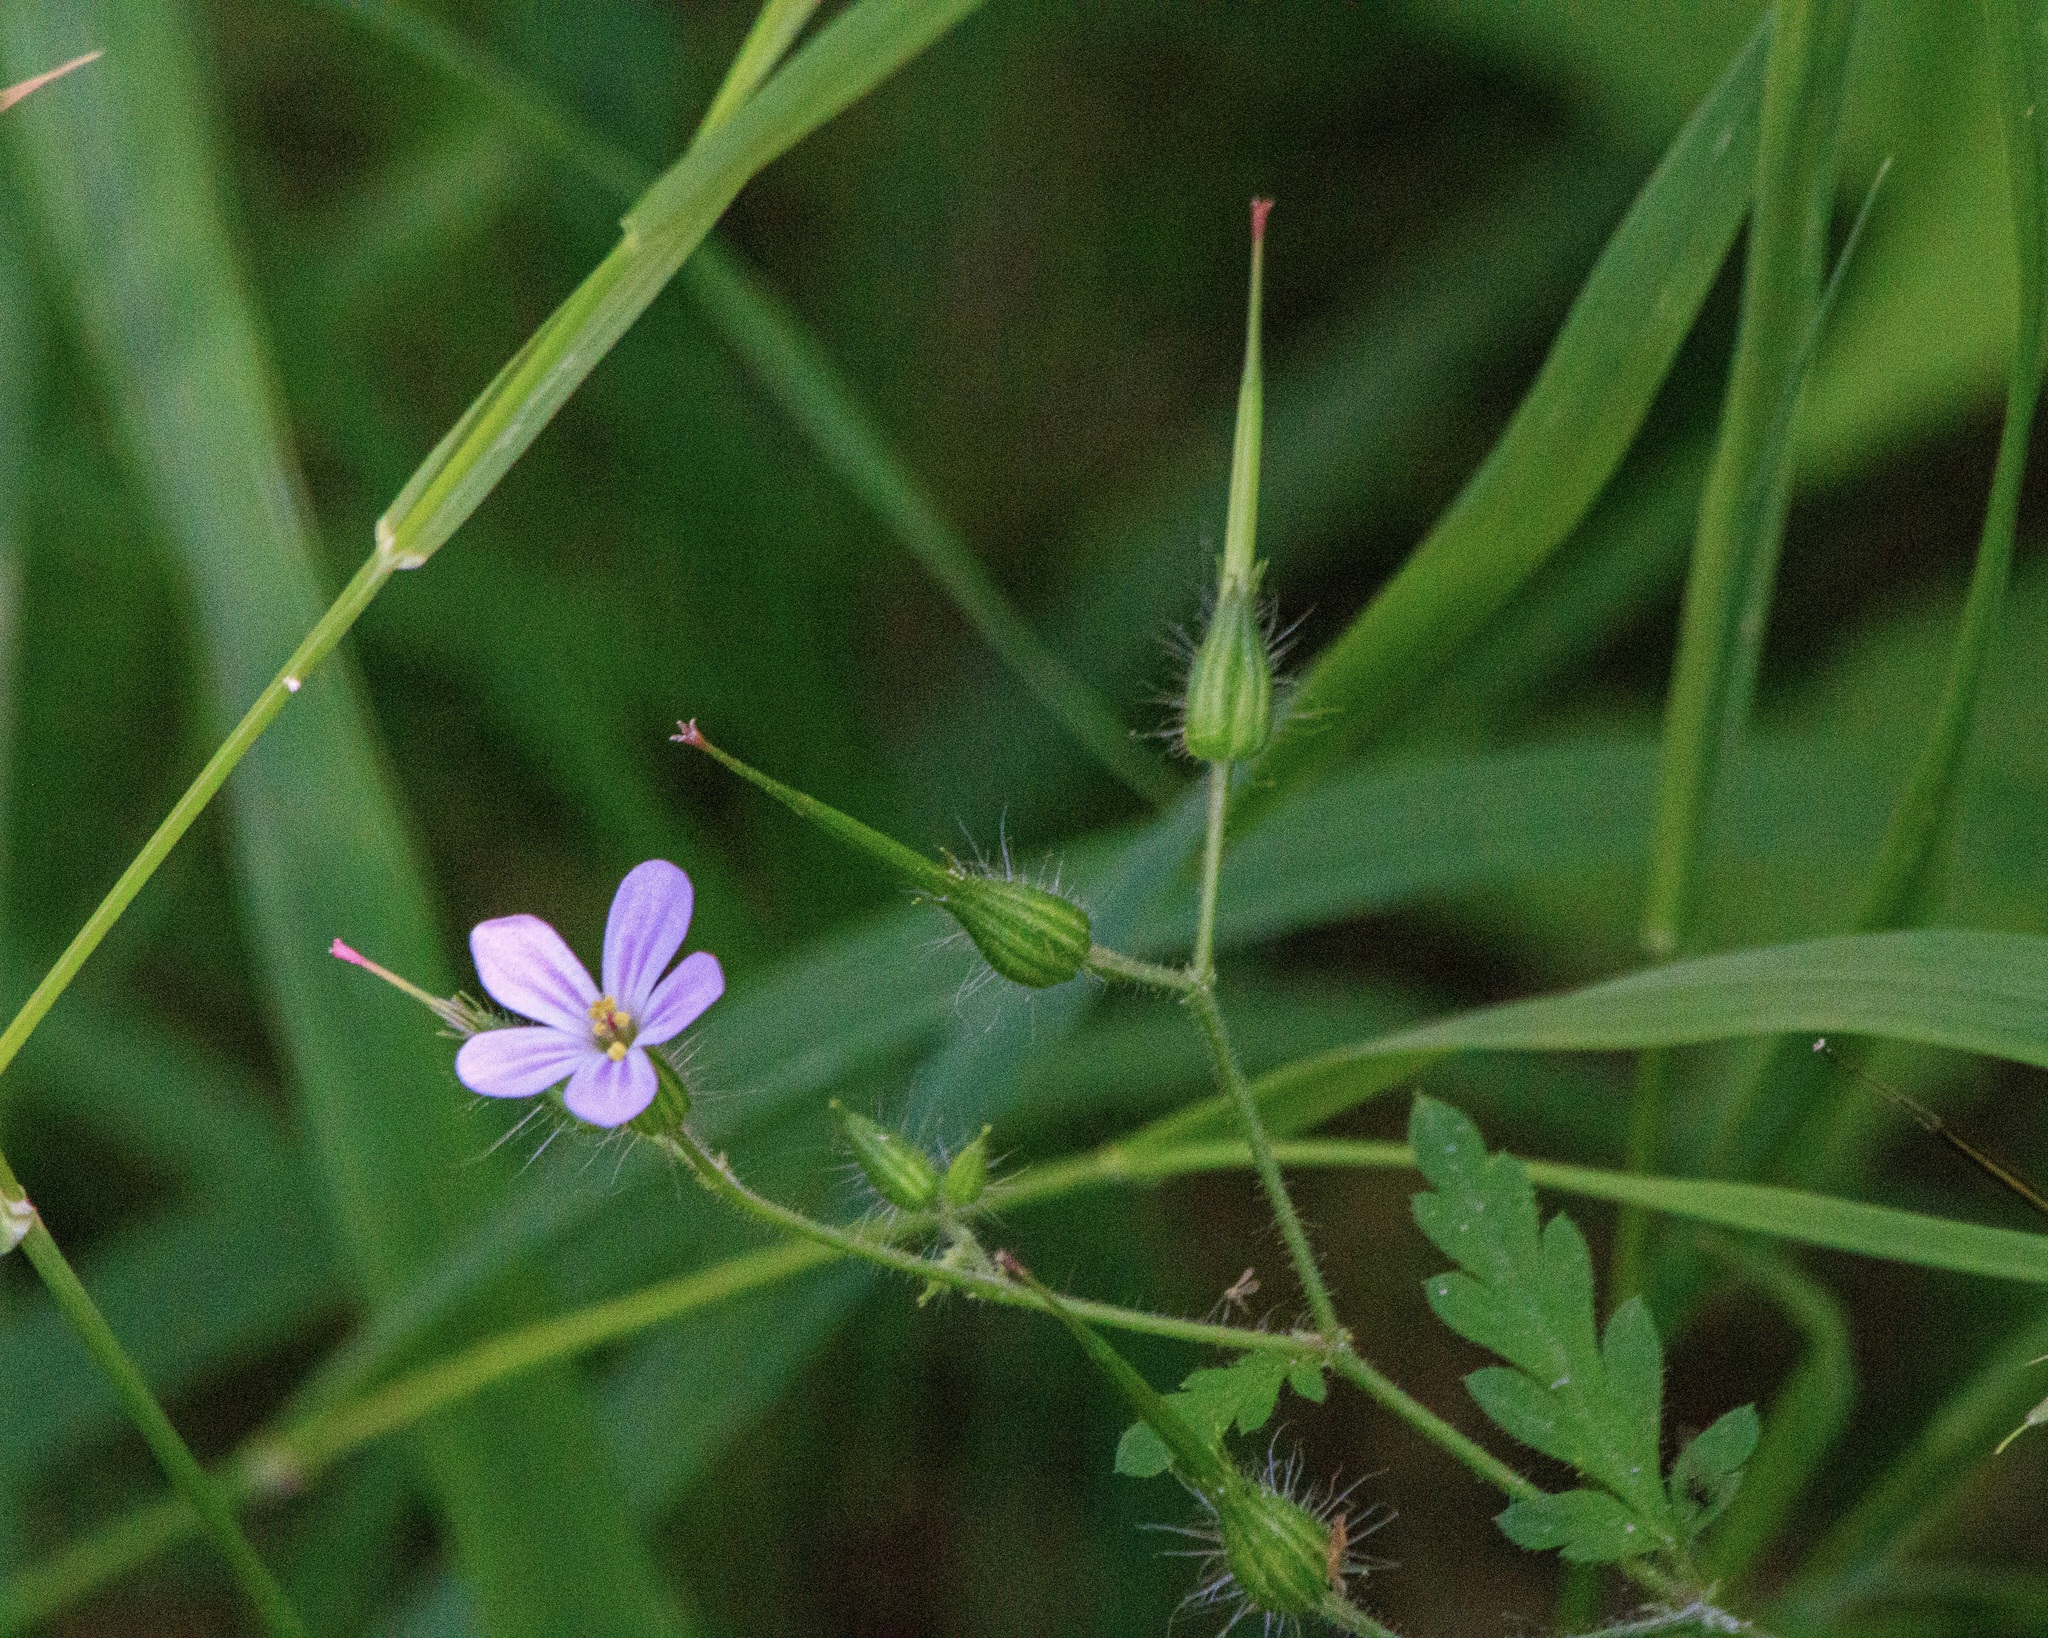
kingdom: Plantae
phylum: Tracheophyta
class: Magnoliopsida
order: Geraniales
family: Geraniaceae
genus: Geranium
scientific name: Geranium robertianum
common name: Herb-robert
